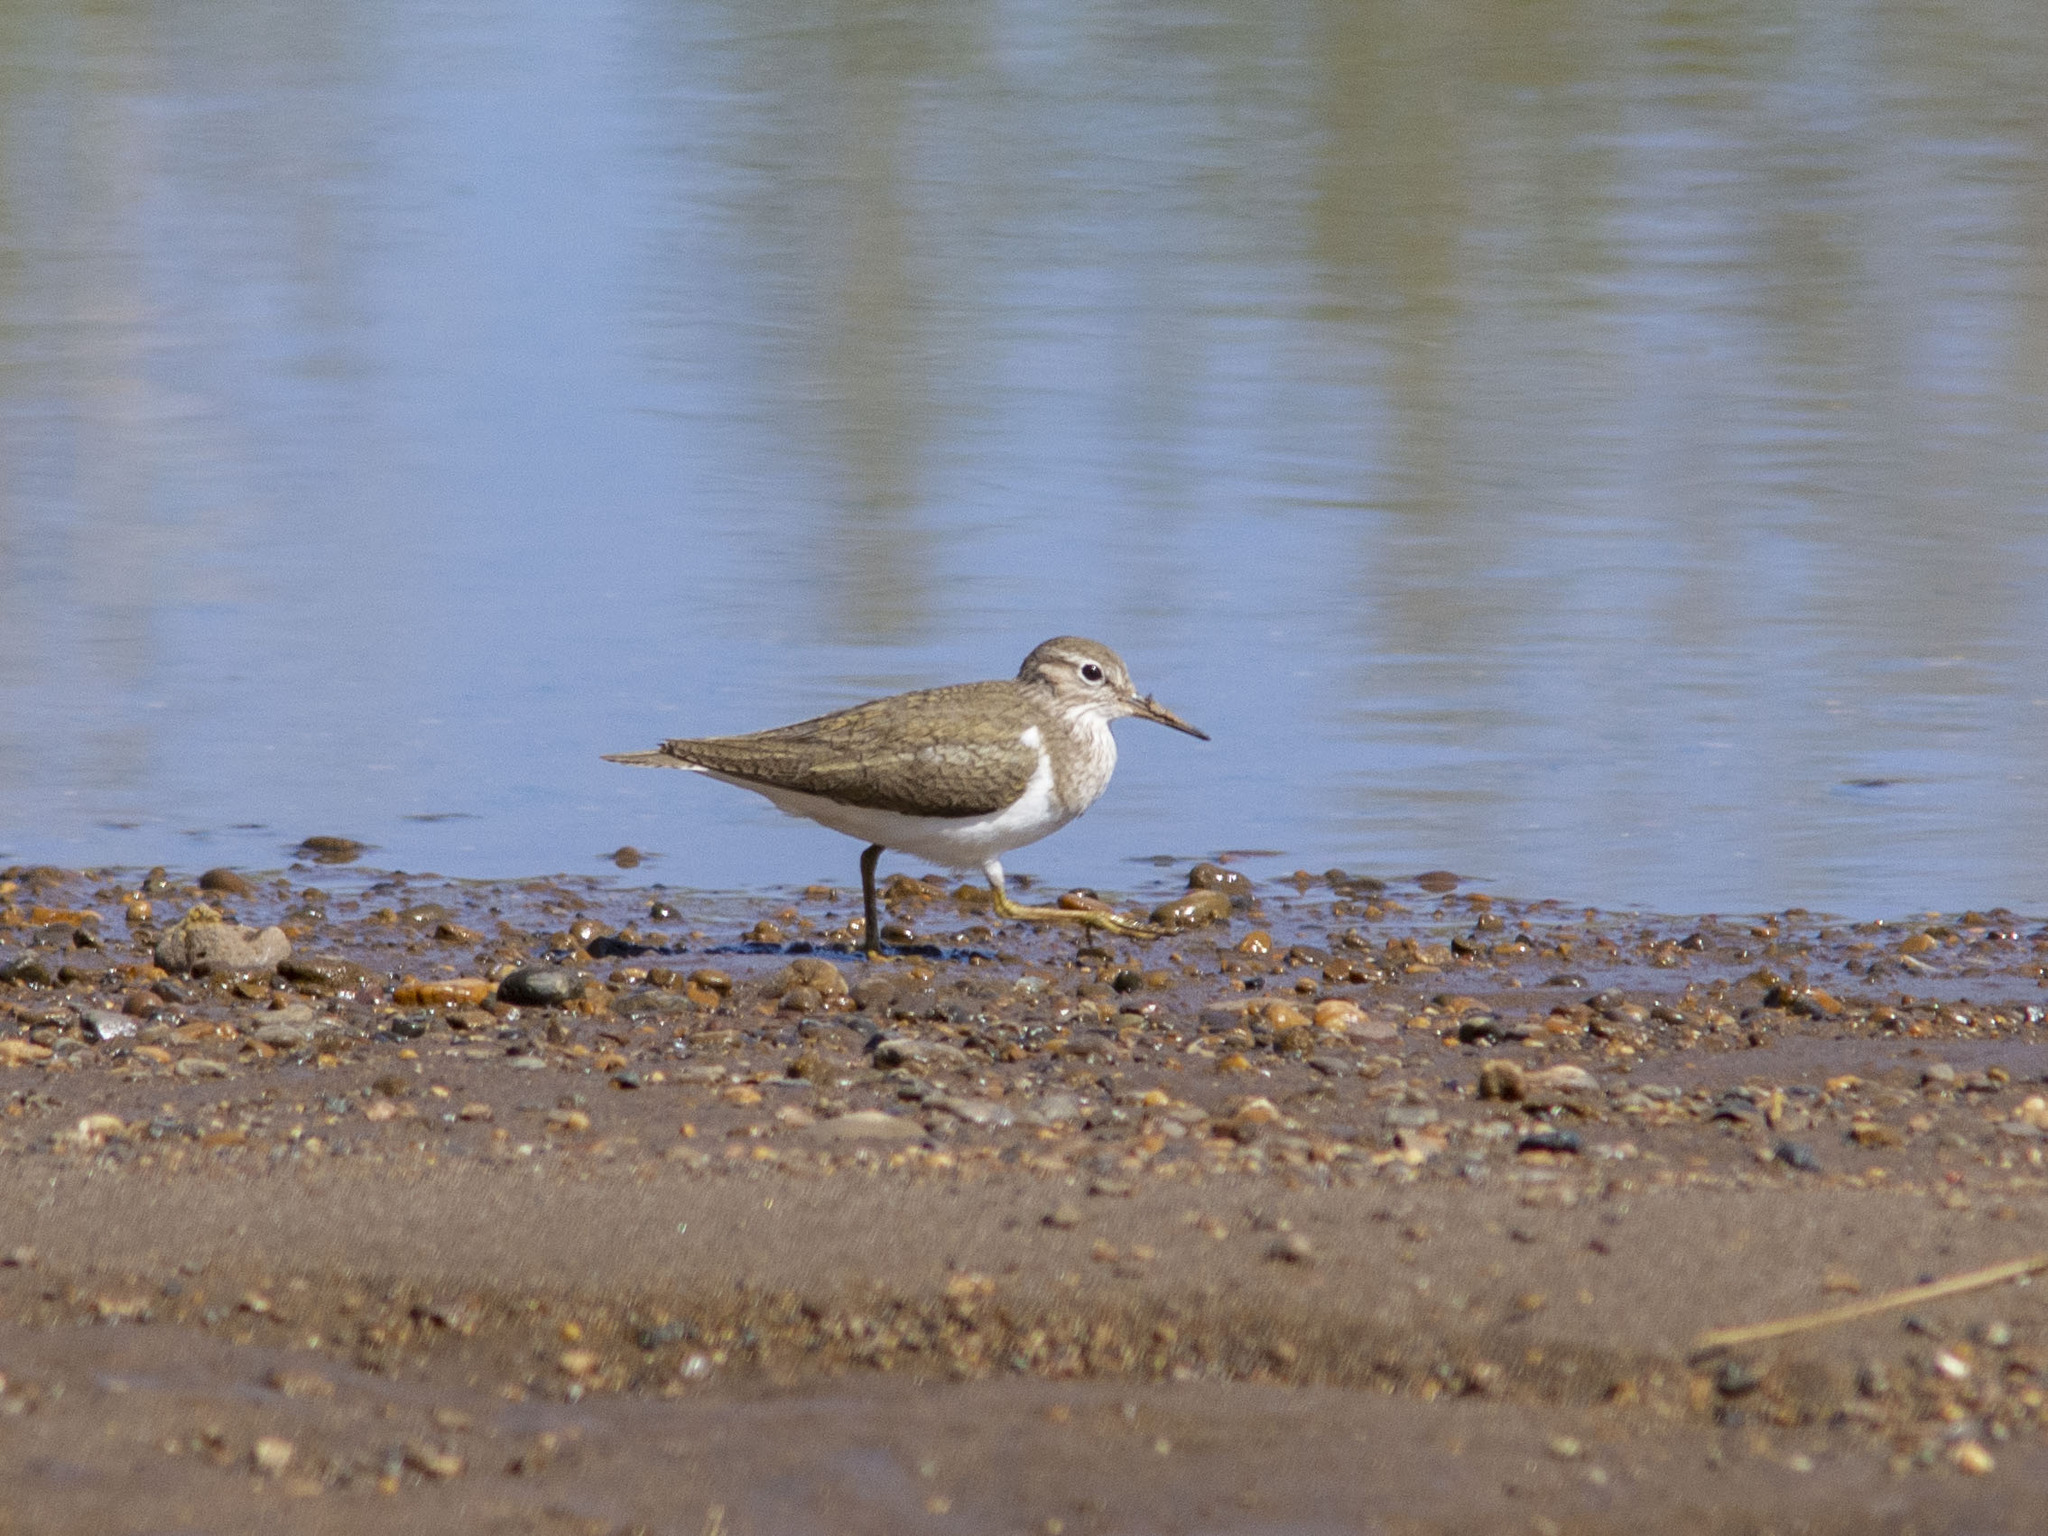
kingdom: Animalia
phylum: Chordata
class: Aves
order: Charadriiformes
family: Scolopacidae
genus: Actitis
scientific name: Actitis hypoleucos
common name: Common sandpiper
